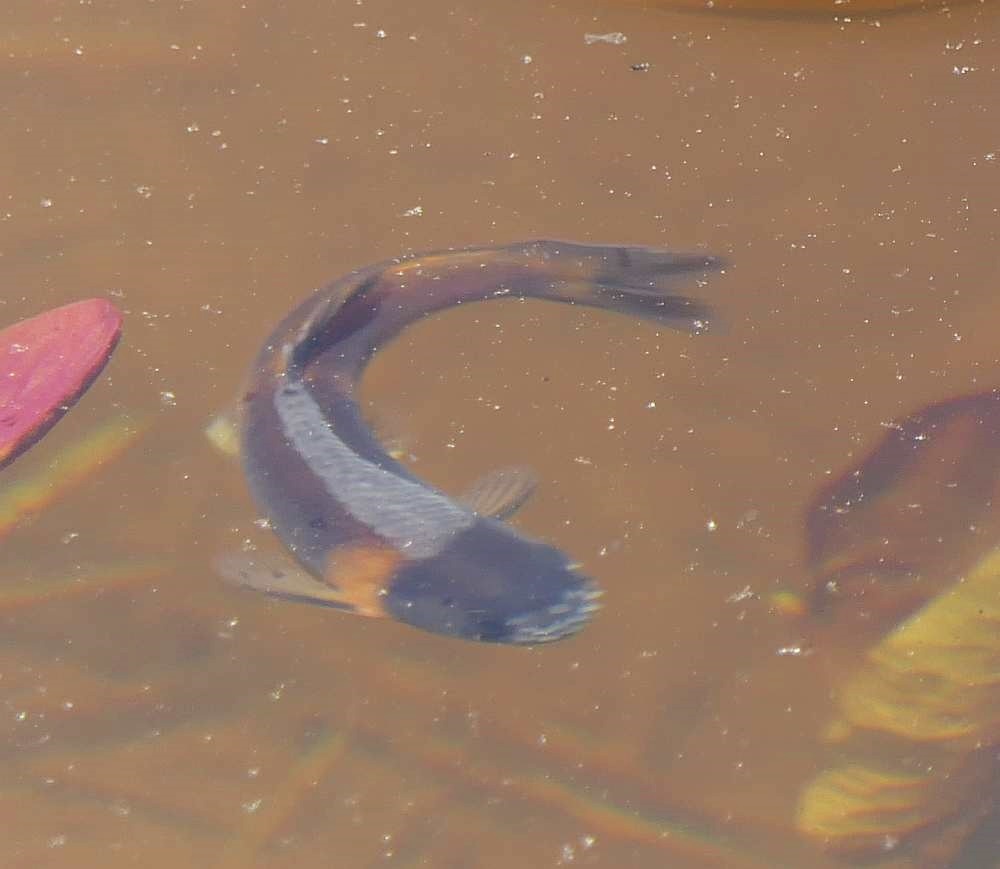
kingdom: Animalia
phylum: Chordata
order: Cypriniformes
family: Cyprinidae
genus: Pimephales
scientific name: Pimephales promelas
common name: Fathead minnow
